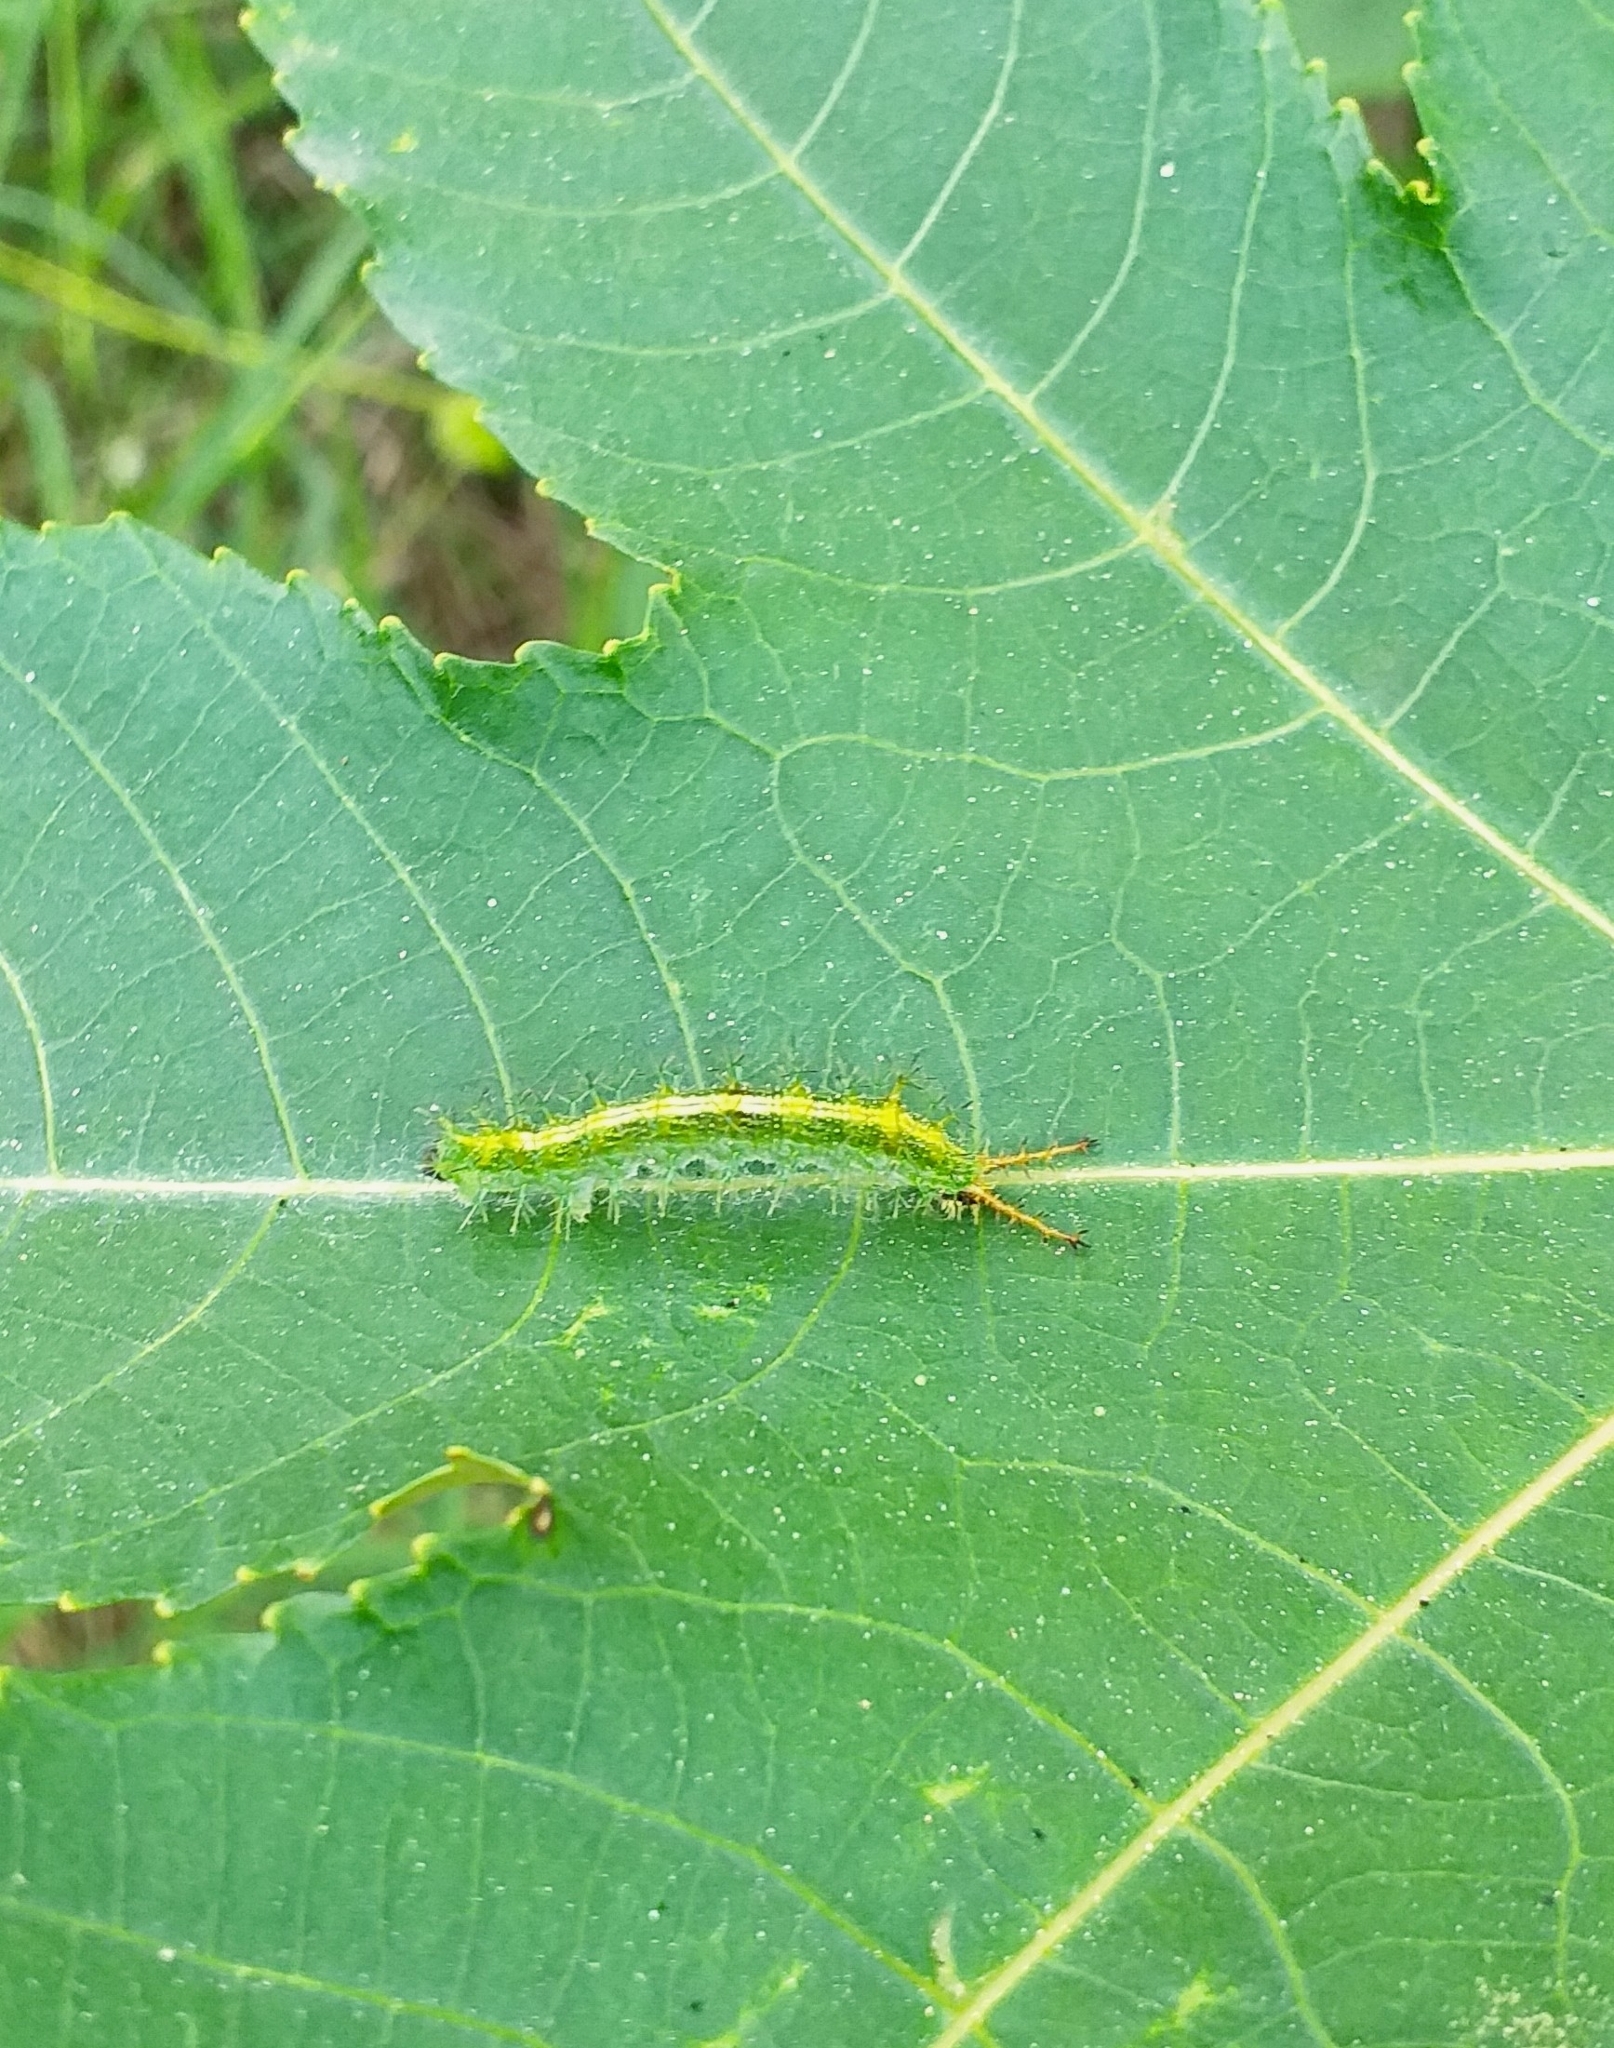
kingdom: Animalia
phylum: Arthropoda
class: Insecta
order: Lepidoptera
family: Nymphalidae
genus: Ariadne
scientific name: Ariadne merione
